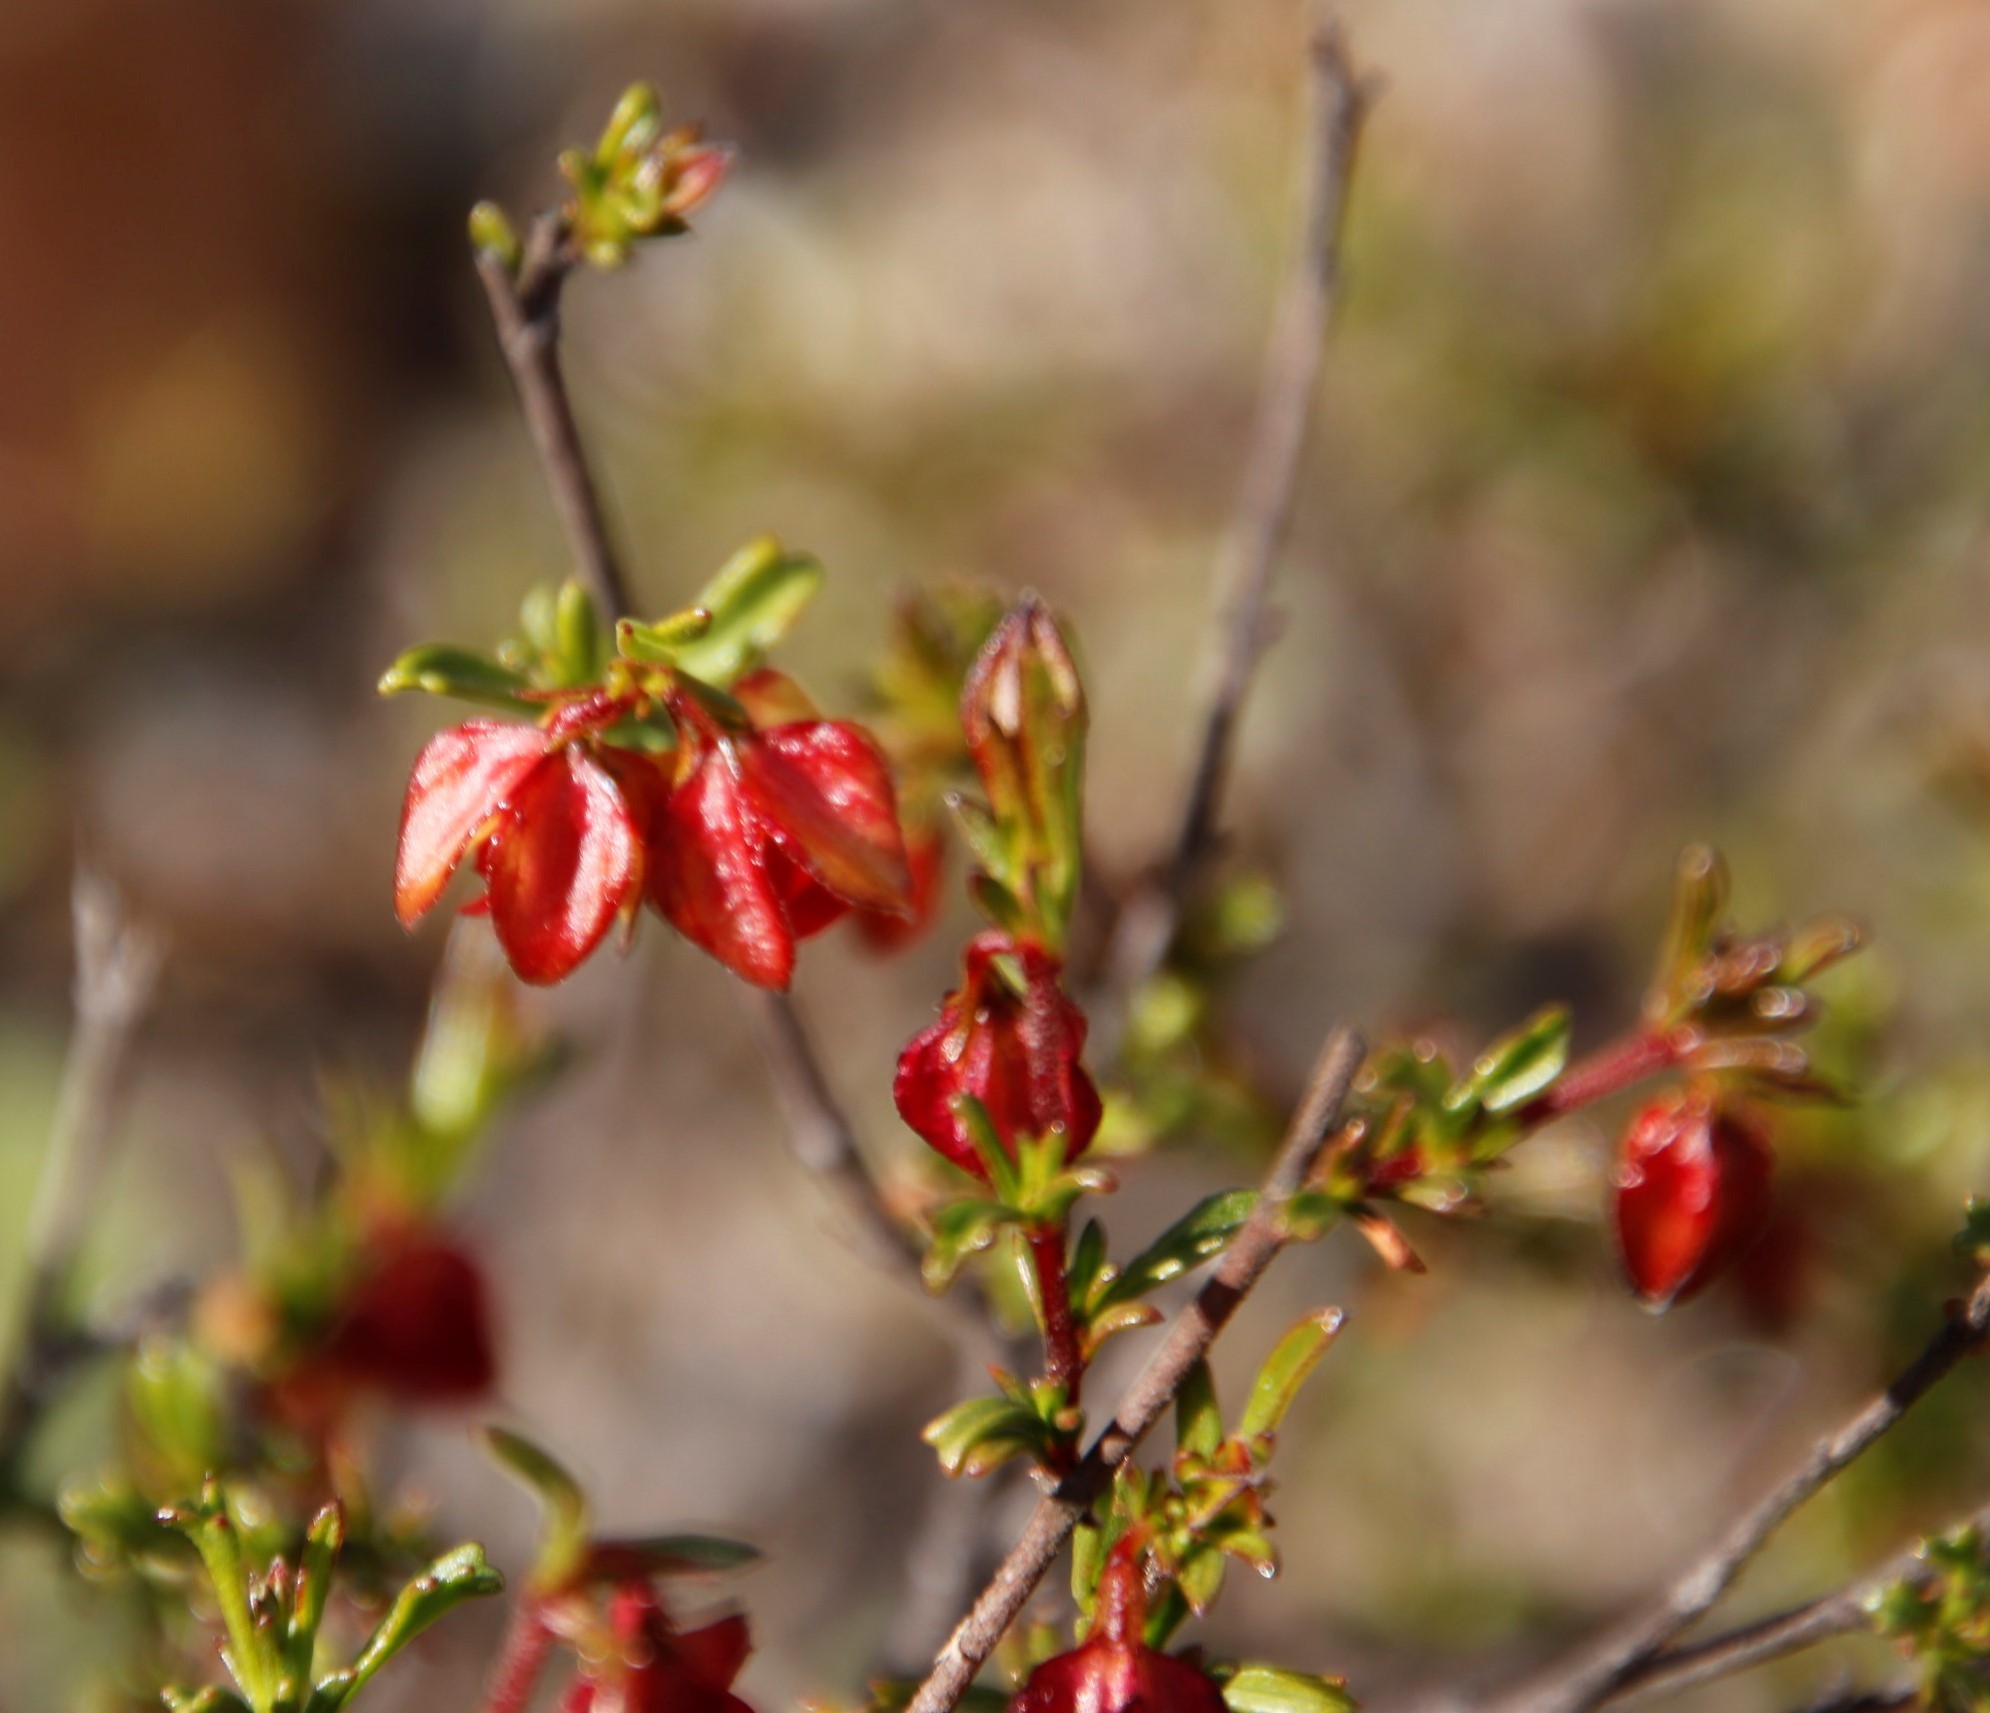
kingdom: Plantae
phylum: Tracheophyta
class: Magnoliopsida
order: Malvales
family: Malvaceae
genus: Hermannia
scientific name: Hermannia angularis
